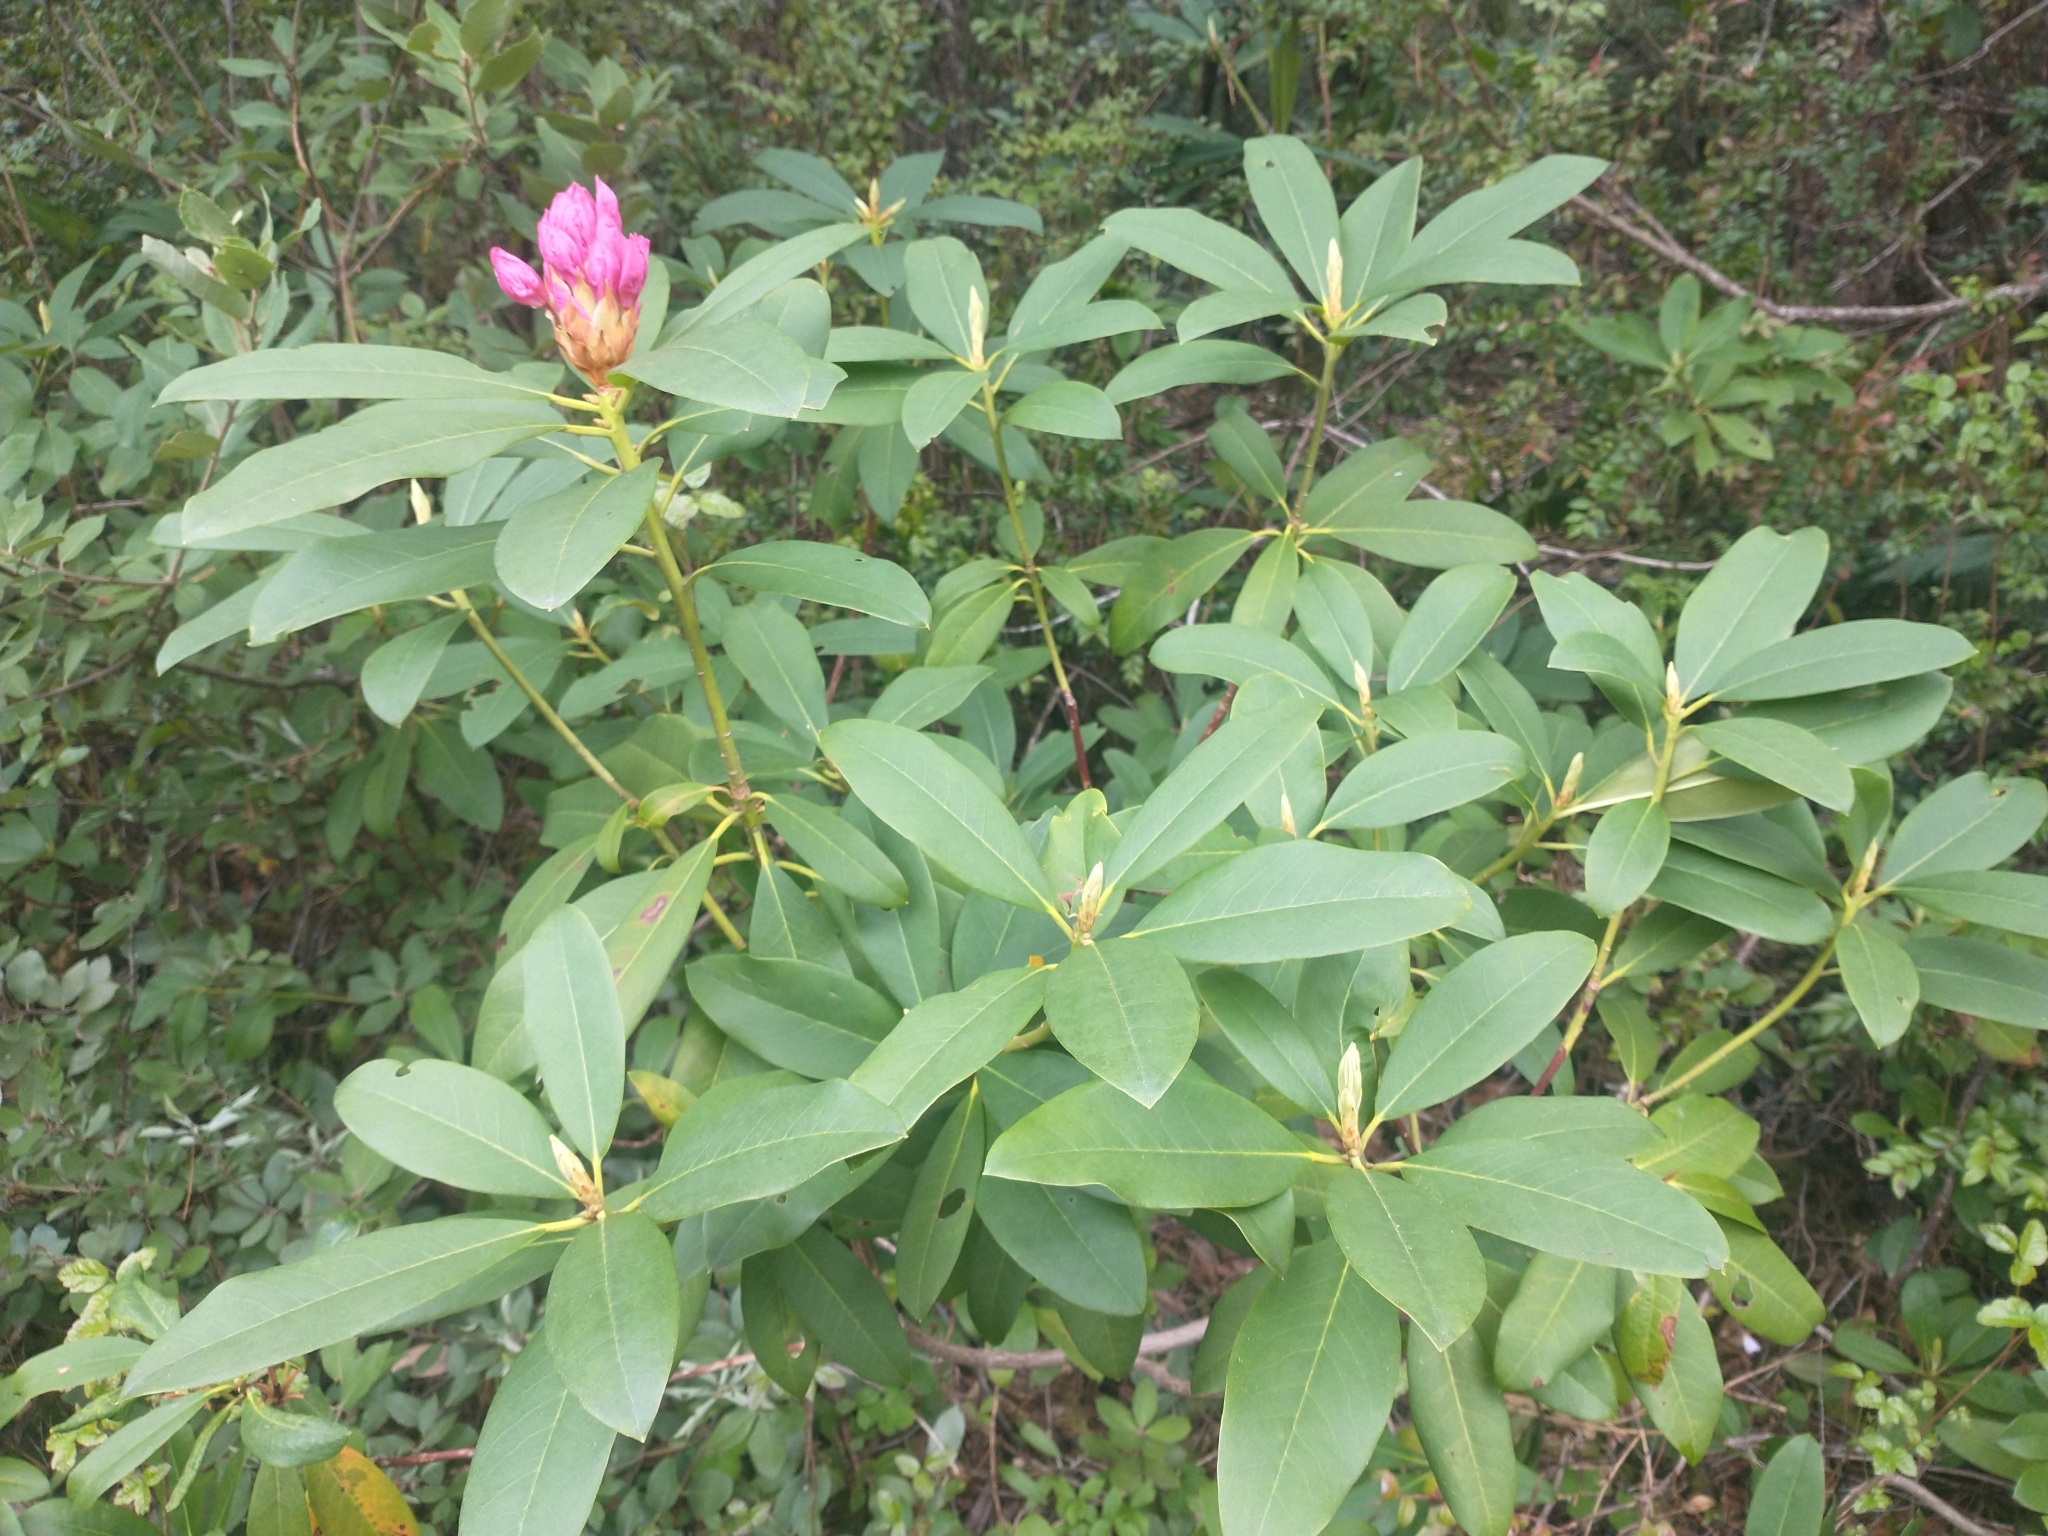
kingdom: Plantae
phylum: Tracheophyta
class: Magnoliopsida
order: Ericales
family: Ericaceae
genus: Rhododendron
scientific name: Rhododendron macrophyllum
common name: California rose bay
